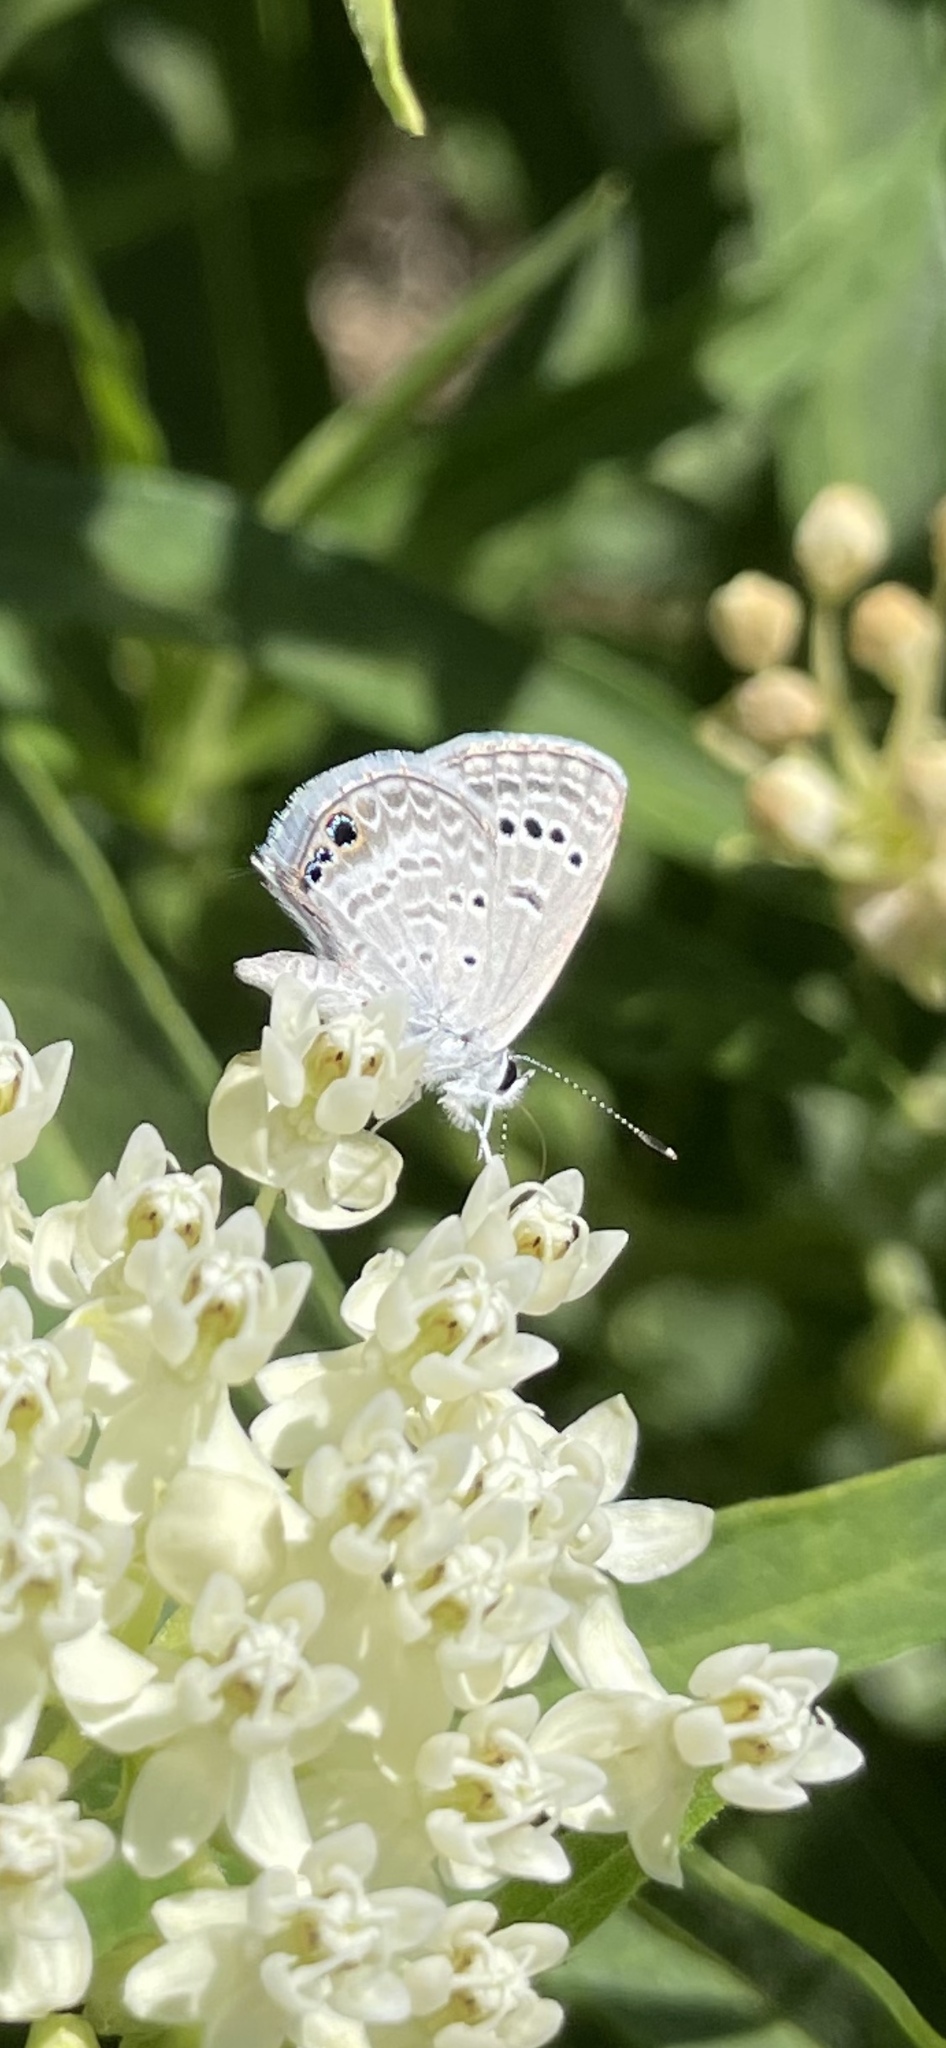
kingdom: Animalia
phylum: Arthropoda
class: Insecta
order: Lepidoptera
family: Lycaenidae
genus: Echinargus
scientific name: Echinargus isola
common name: Reakirt's blue
